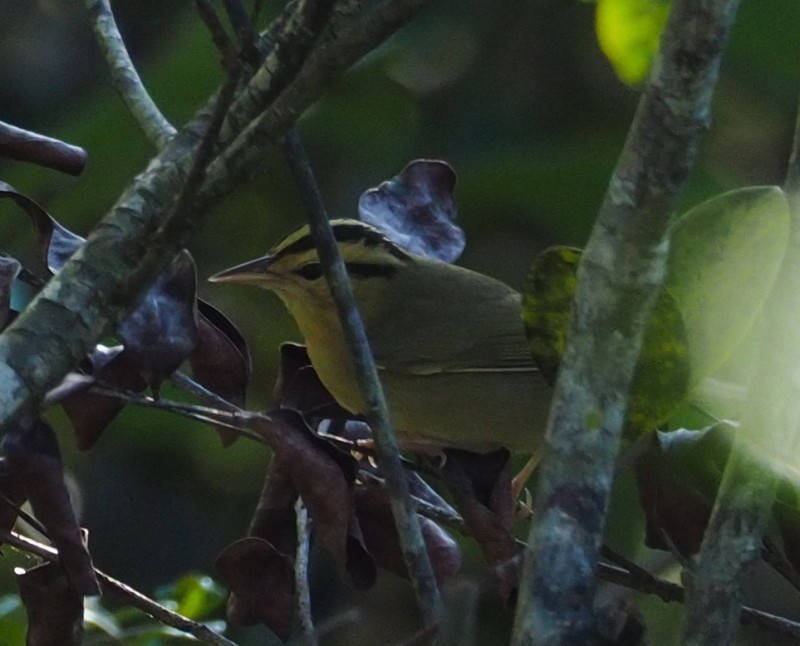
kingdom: Animalia
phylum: Chordata
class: Aves
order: Passeriformes
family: Parulidae
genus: Helmitheros
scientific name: Helmitheros vermivorum
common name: Worm-eating warbler
